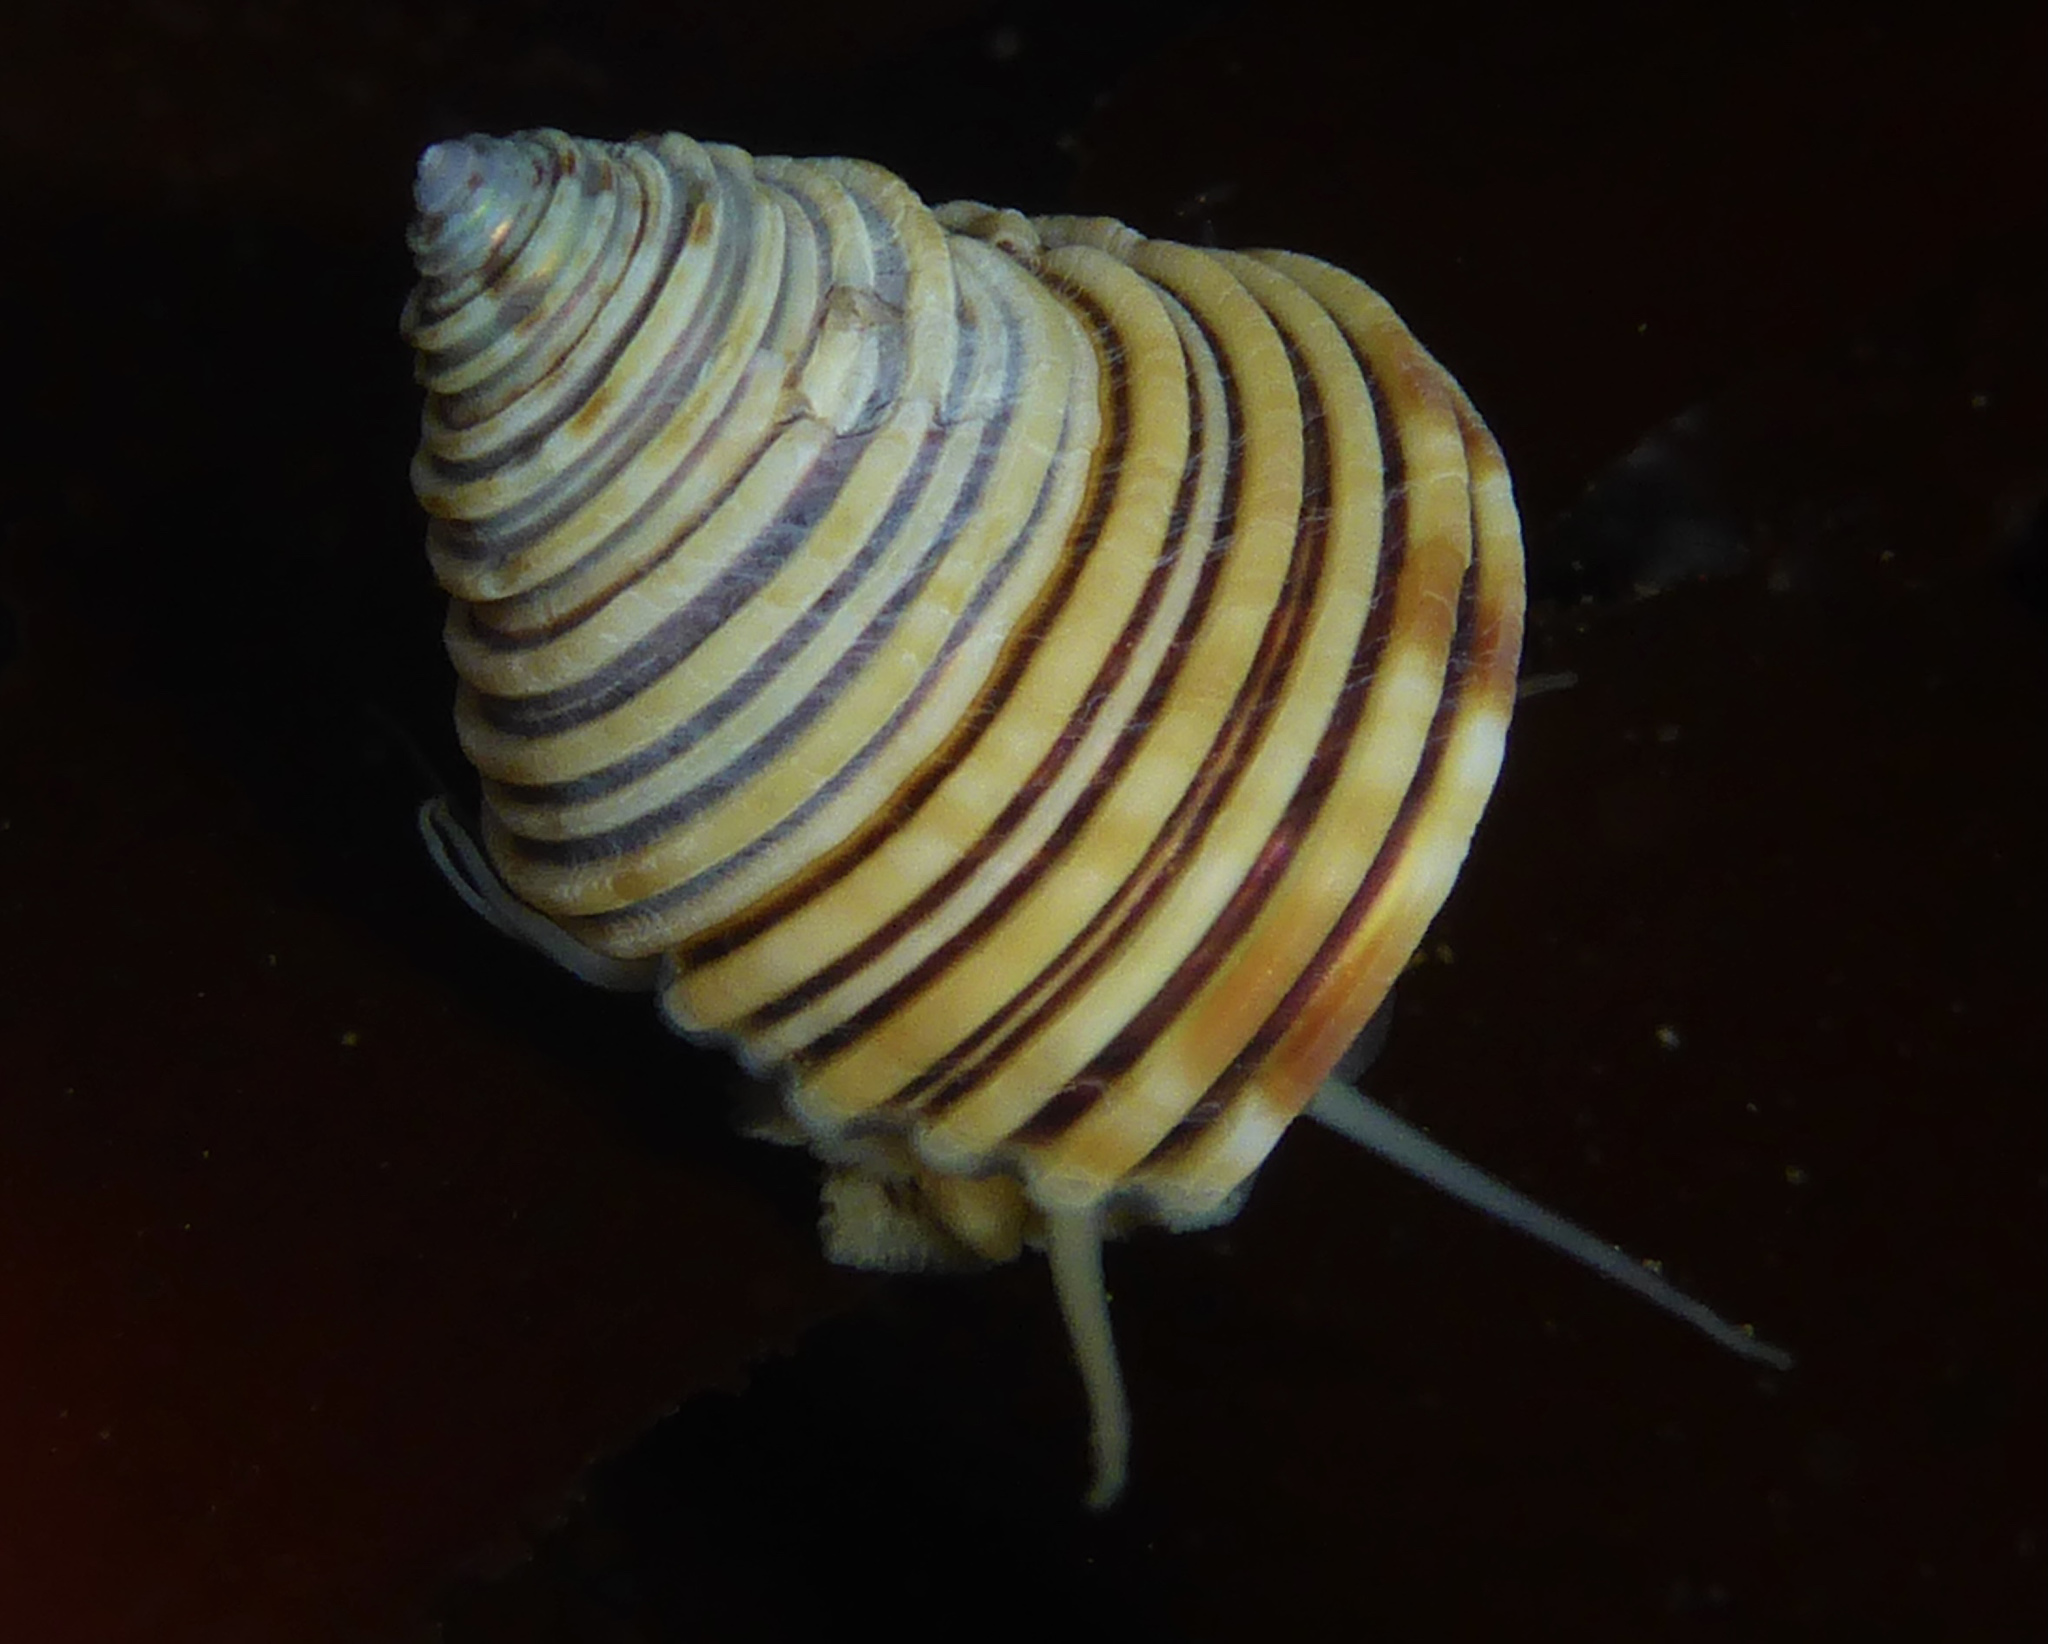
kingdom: Animalia
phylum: Mollusca
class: Gastropoda
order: Trochida
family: Calliostomatidae
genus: Calliostoma
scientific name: Calliostoma canaliculatum
